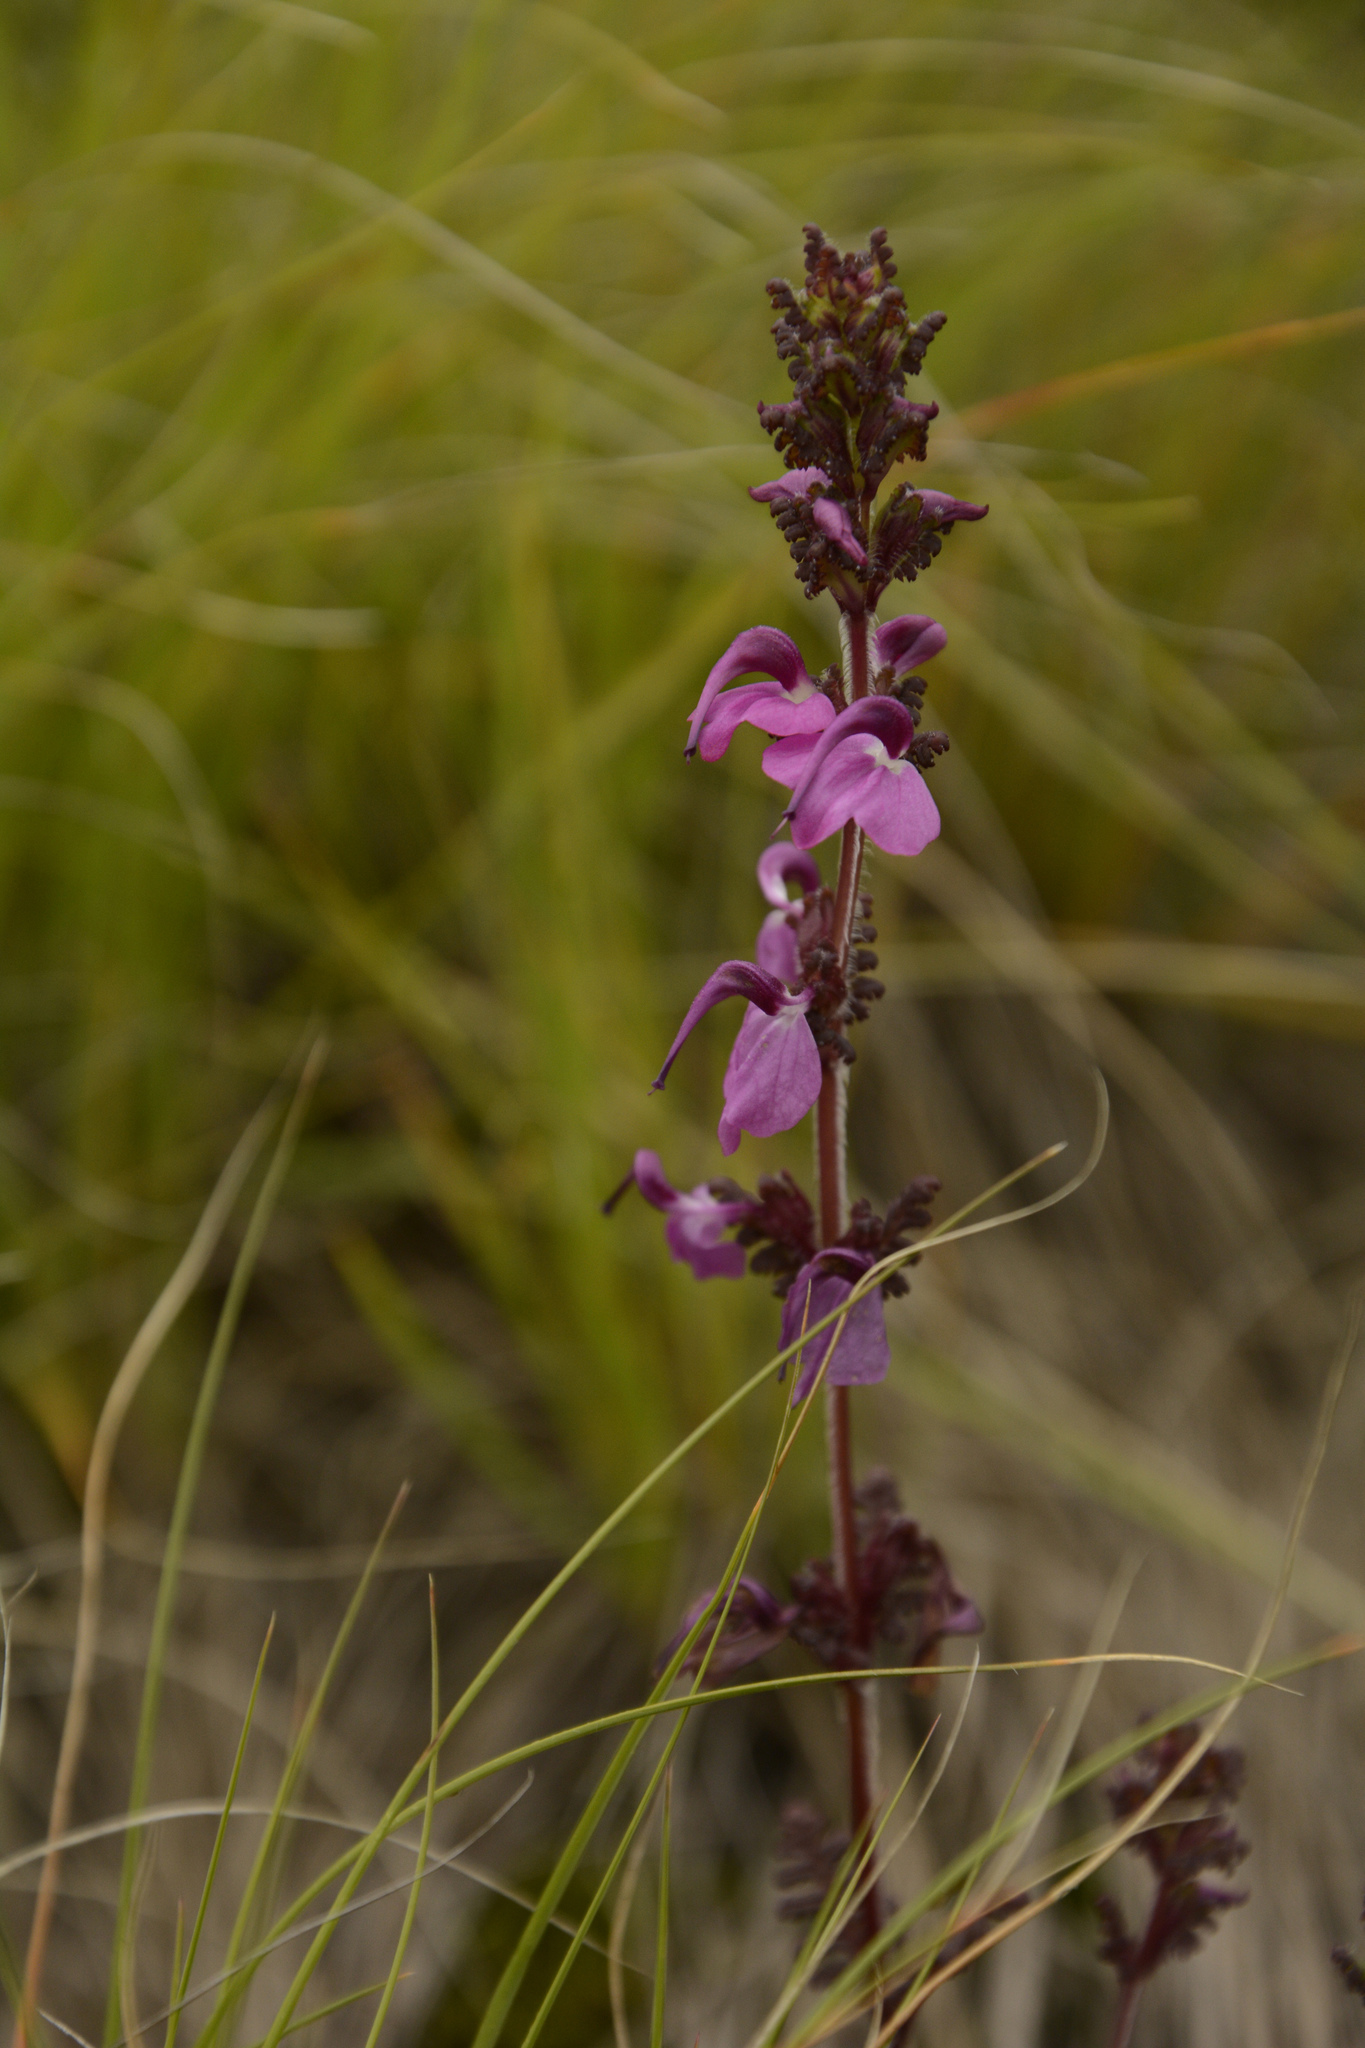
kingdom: Plantae
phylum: Tracheophyta
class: Magnoliopsida
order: Lamiales
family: Orobanchaceae
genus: Pedicularis
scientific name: Pedicularis porrecta
